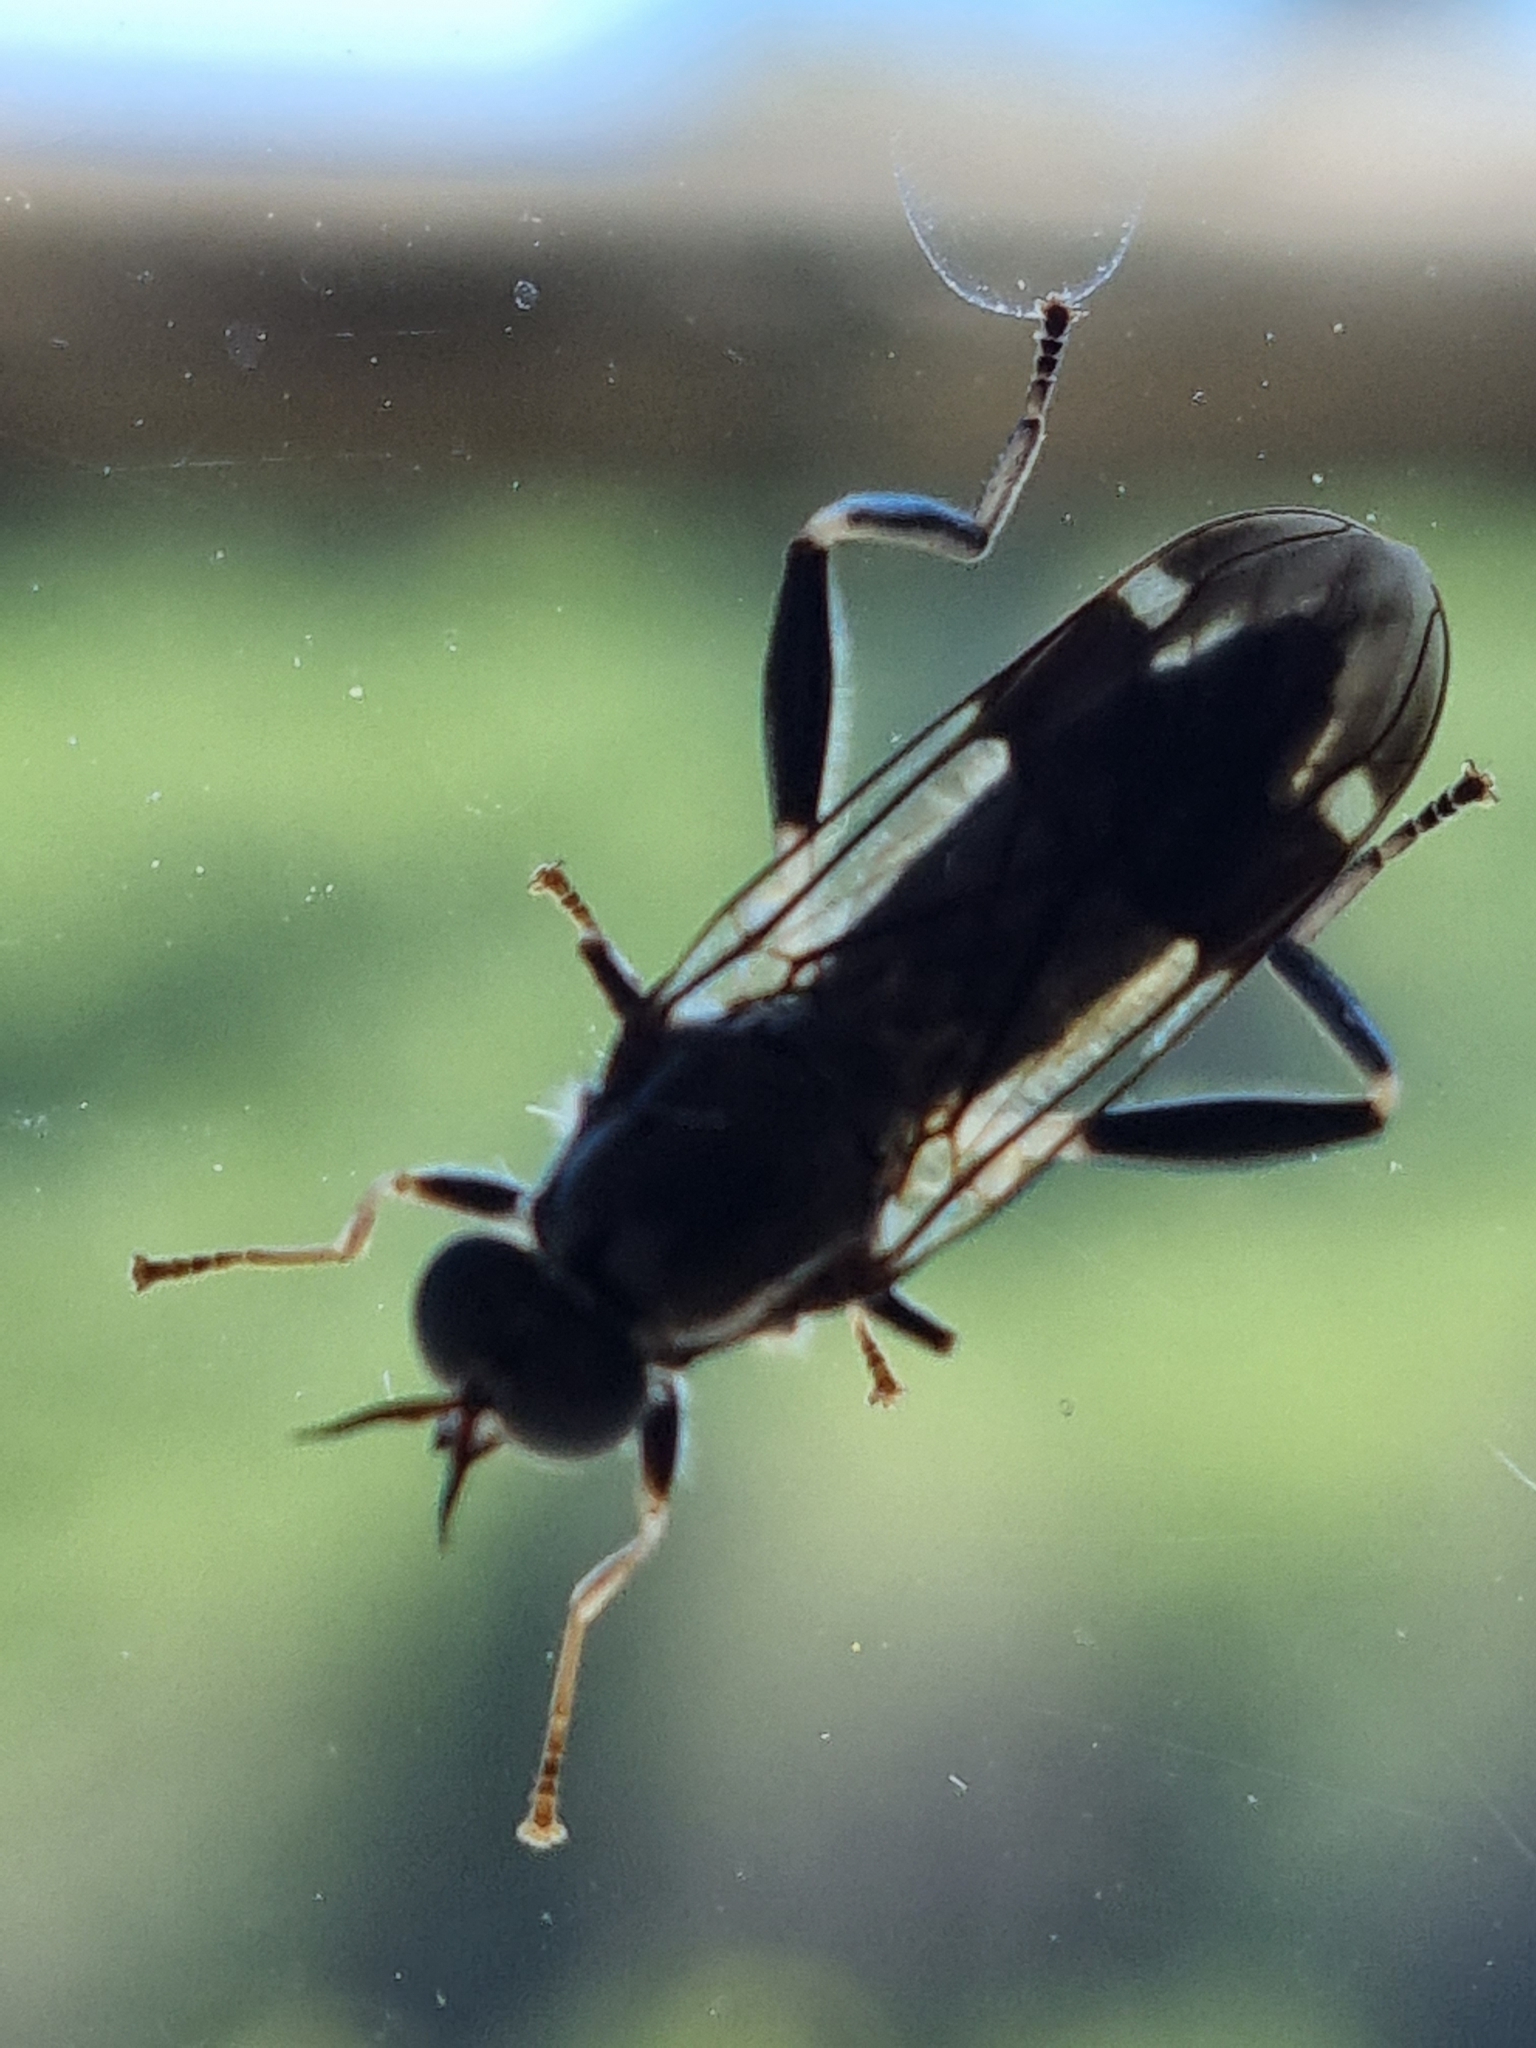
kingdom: Animalia
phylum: Arthropoda
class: Insecta
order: Diptera
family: Stratiomyidae
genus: Exaireta
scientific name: Exaireta spinigera
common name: Blue soldier fly
